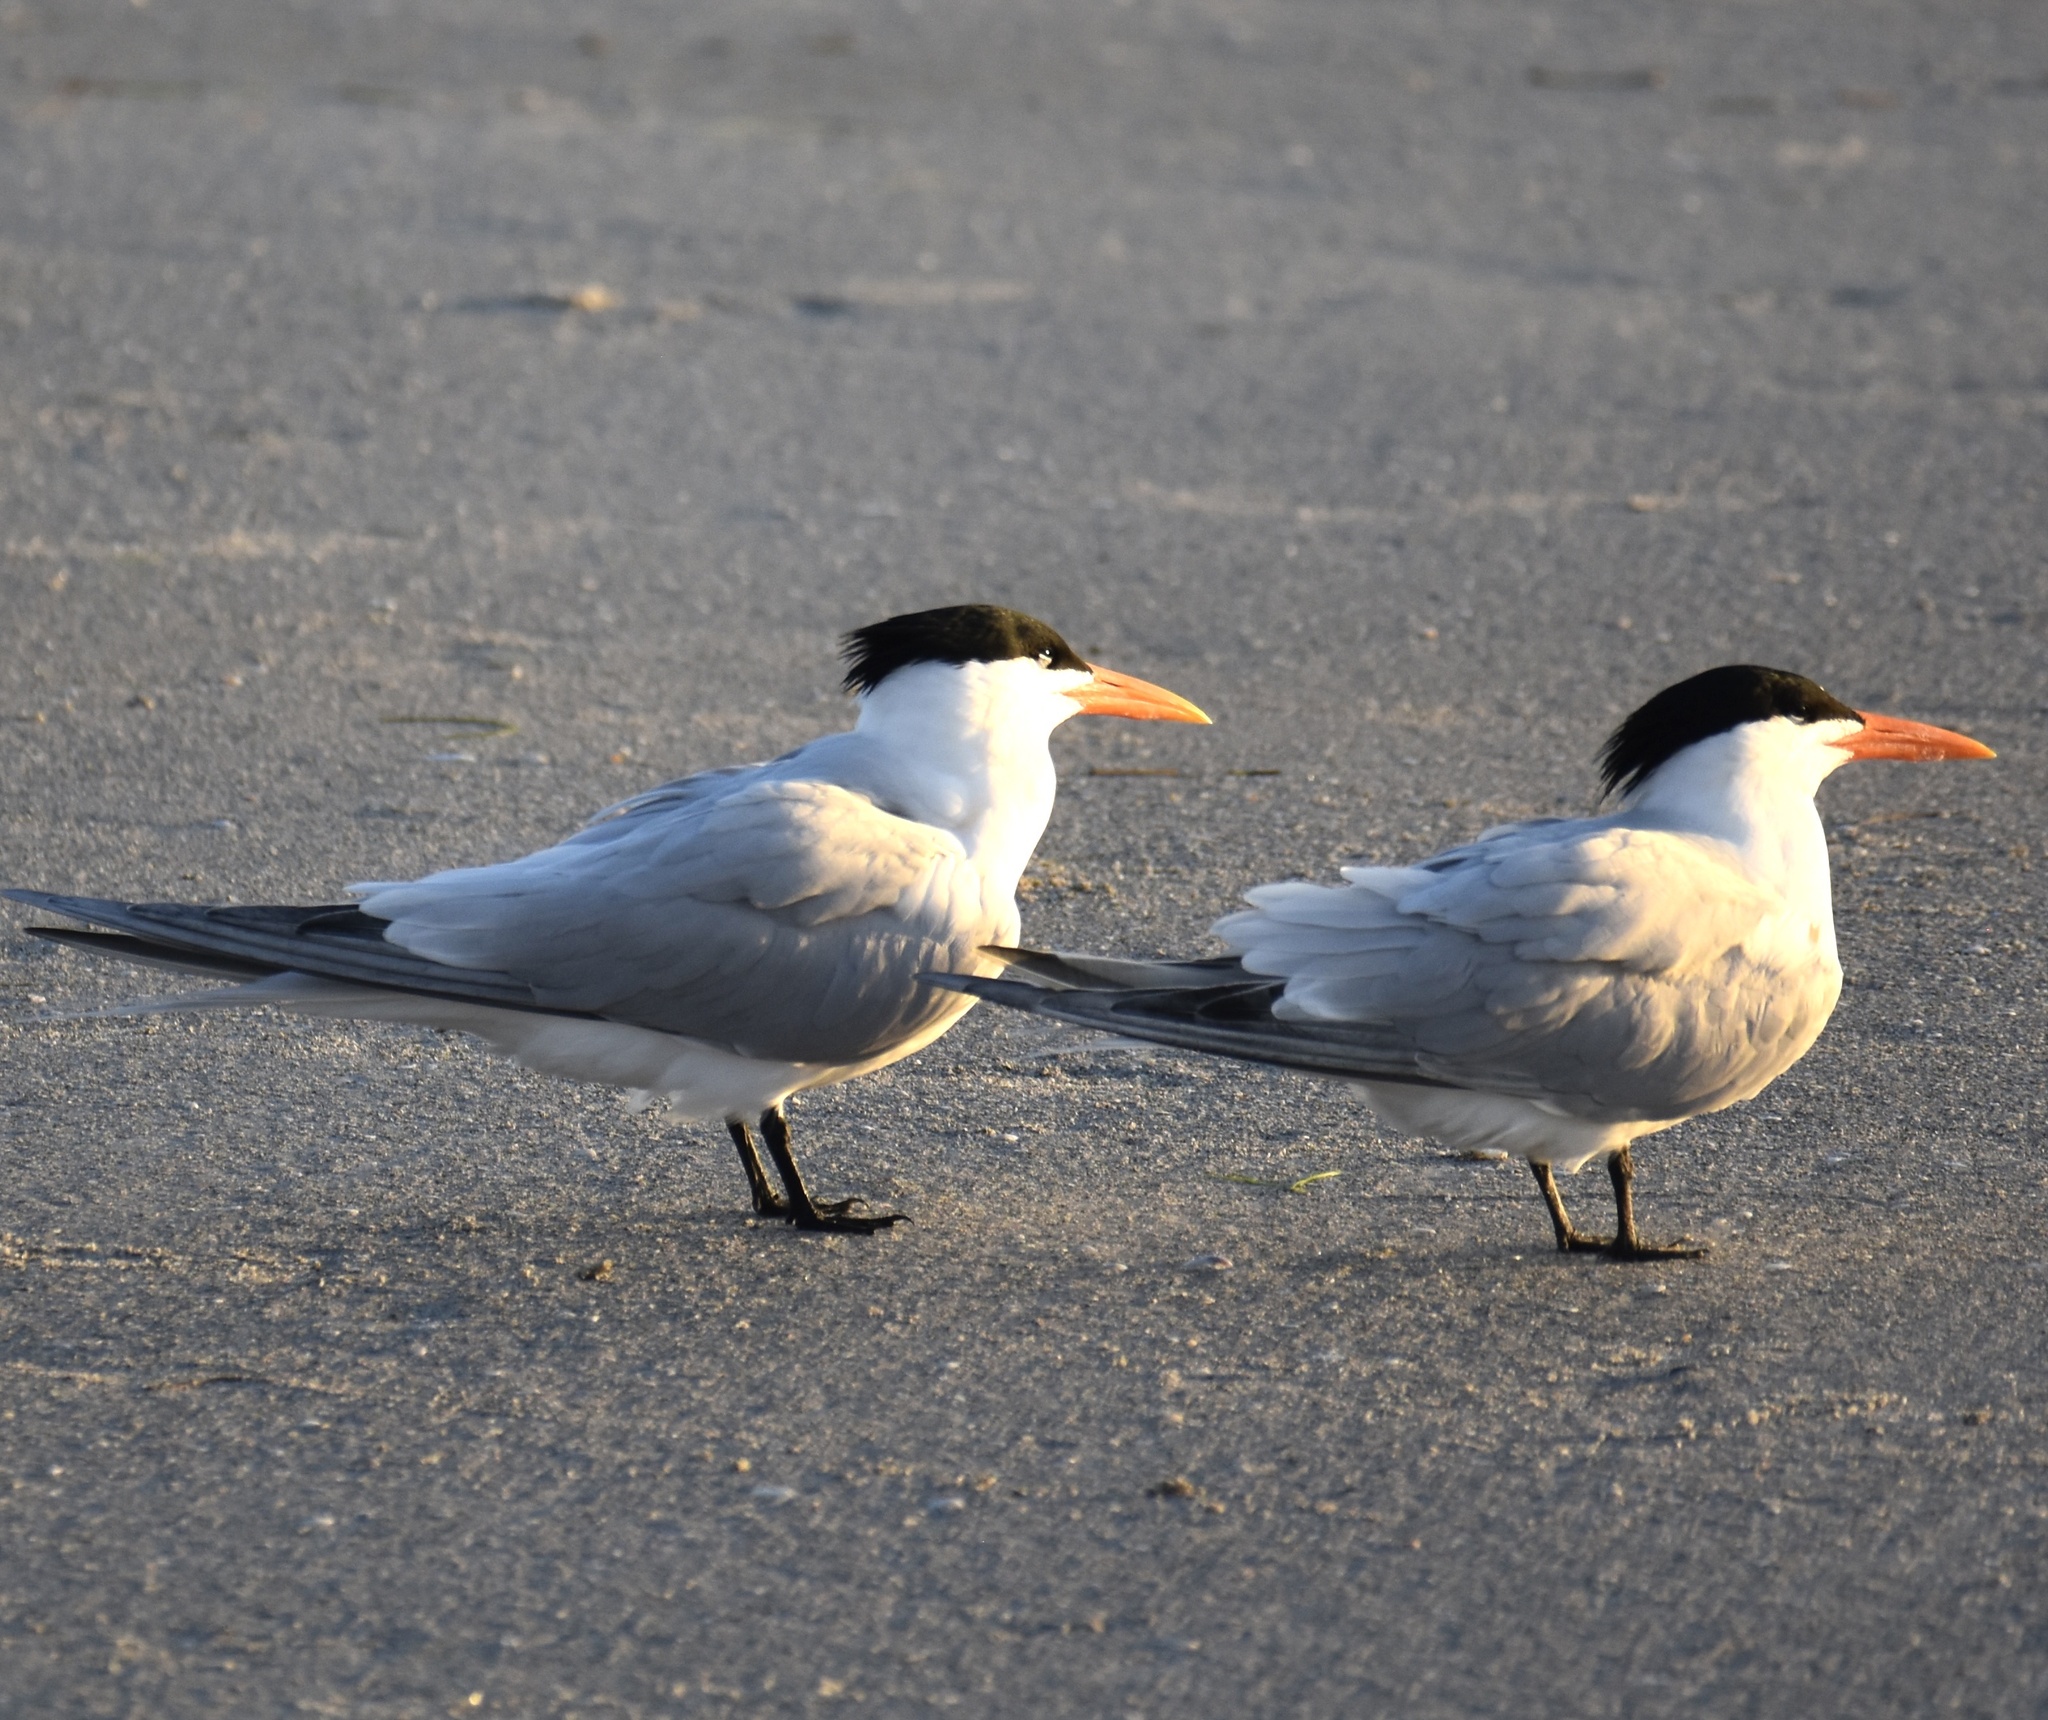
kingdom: Animalia
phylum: Chordata
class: Aves
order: Charadriiformes
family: Laridae
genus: Thalasseus
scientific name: Thalasseus maximus
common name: Royal tern
